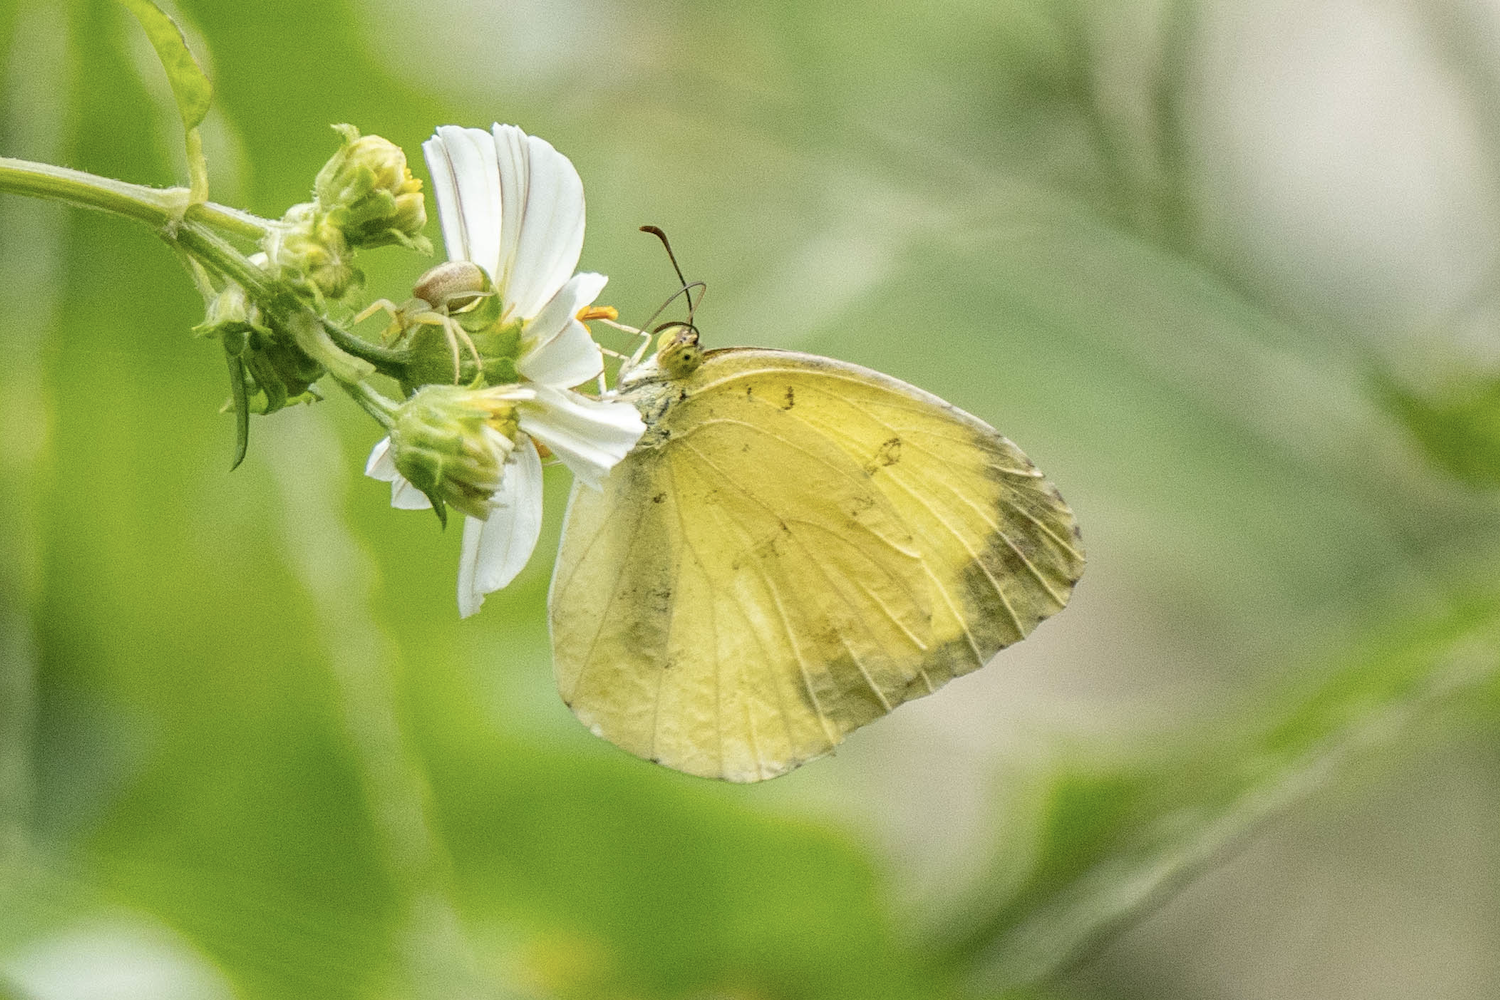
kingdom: Animalia
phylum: Arthropoda
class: Insecta
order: Lepidoptera
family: Pieridae
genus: Eurema
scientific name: Eurema hecabe
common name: Pale grass yellow
